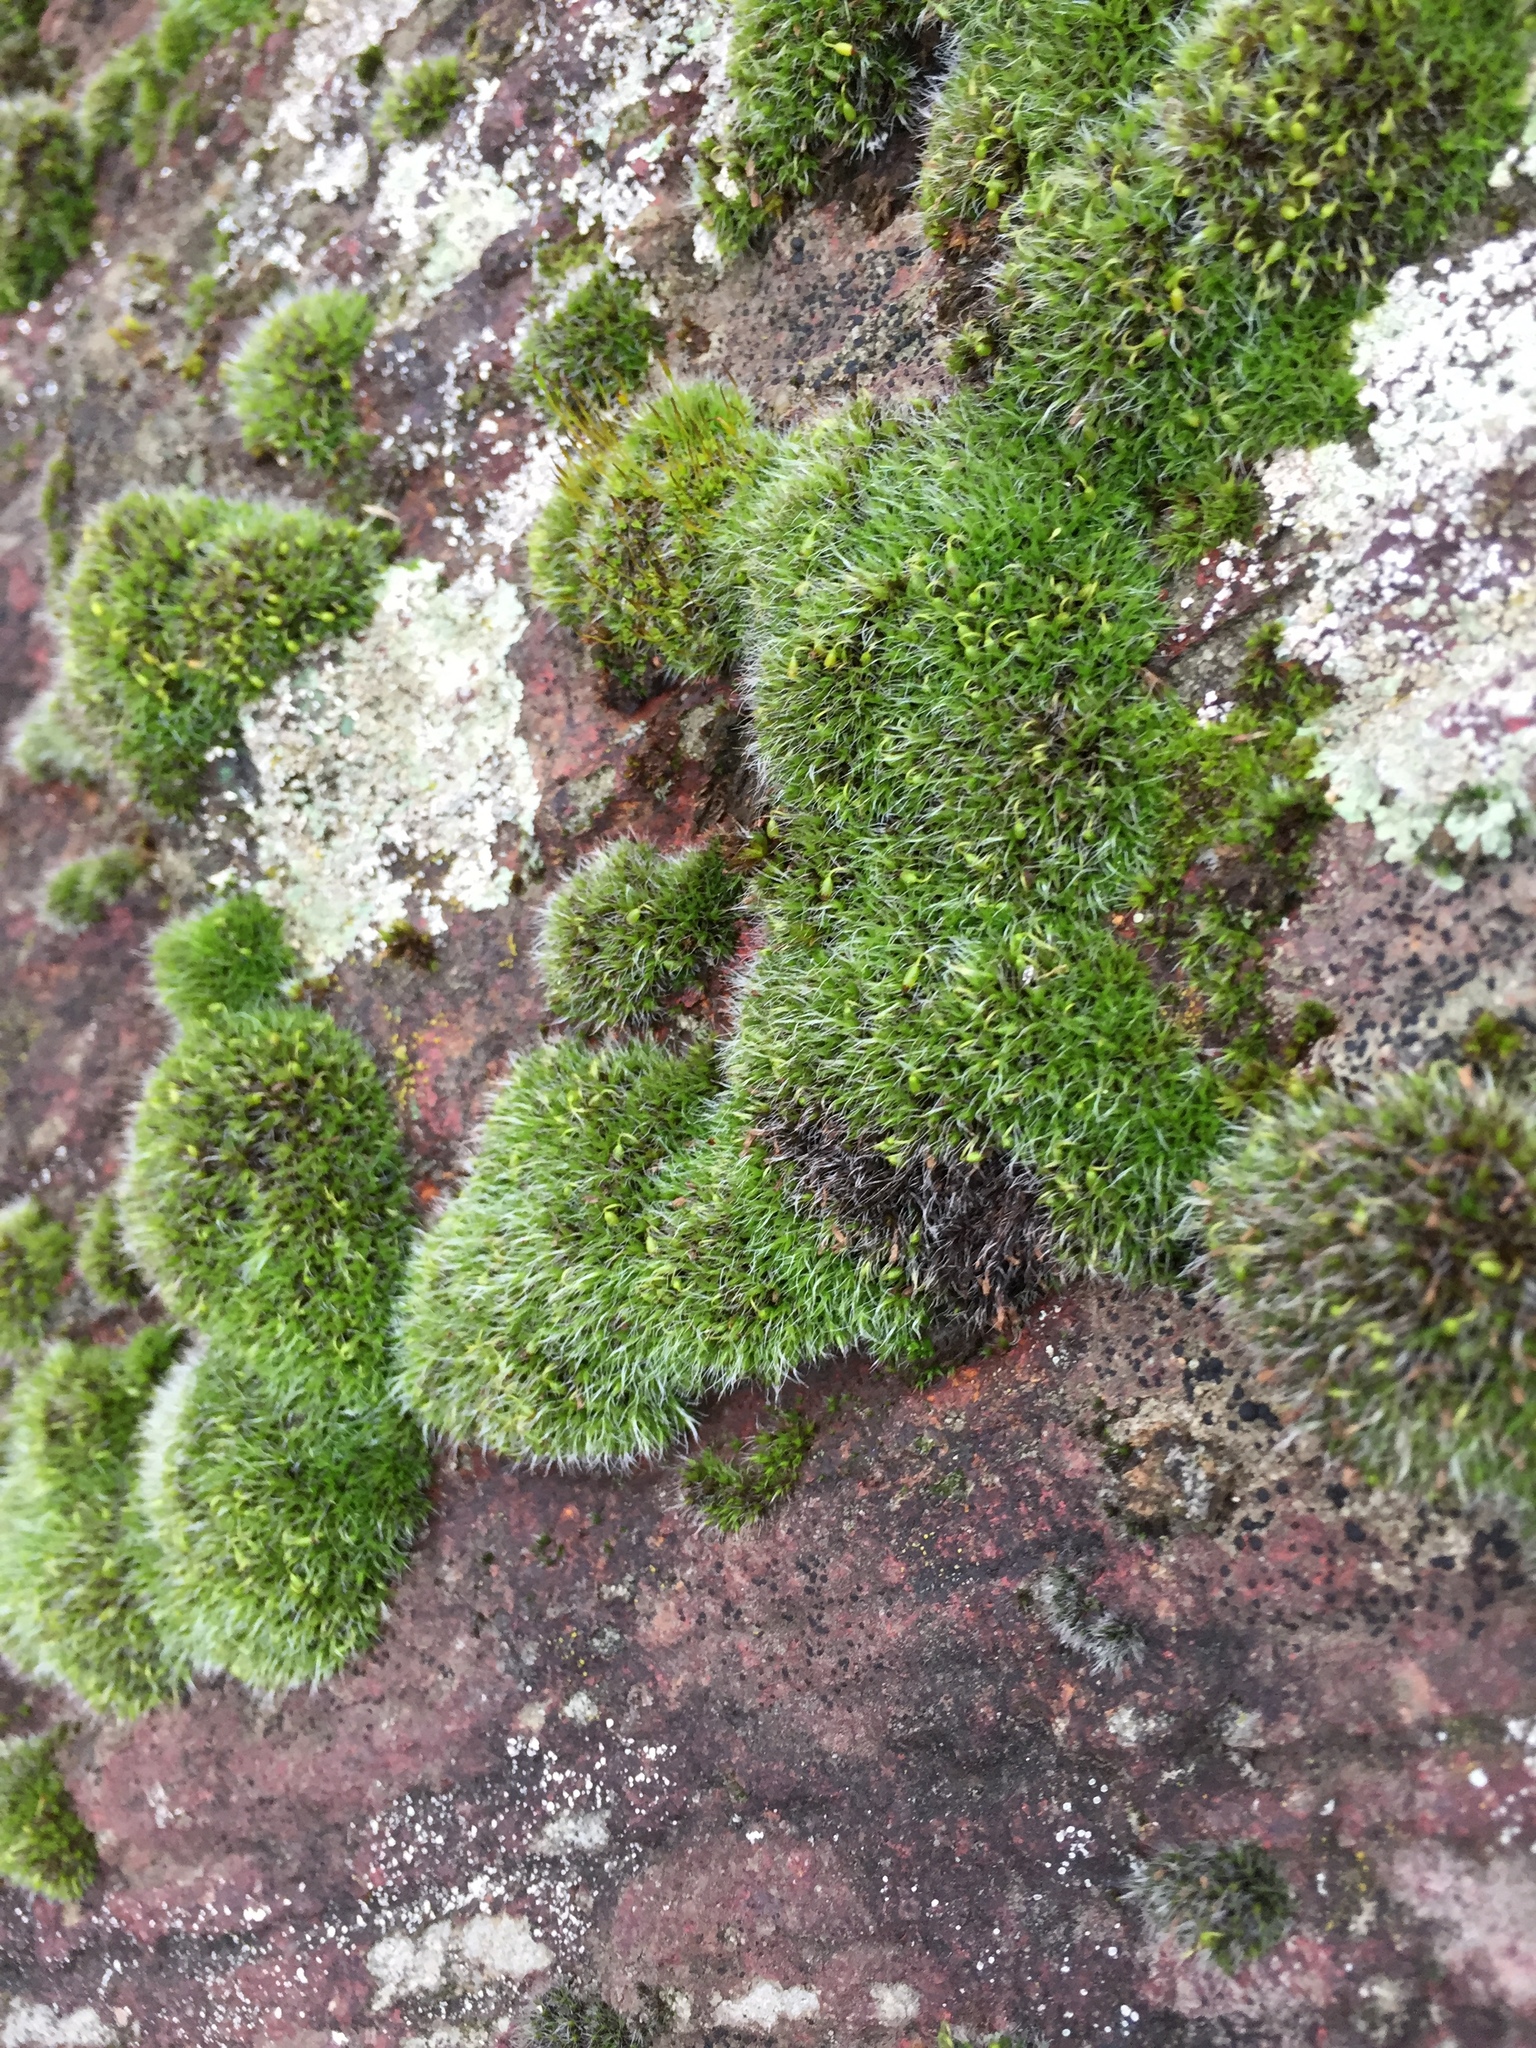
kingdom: Plantae
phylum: Bryophyta
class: Bryopsida
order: Grimmiales
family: Grimmiaceae
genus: Grimmia
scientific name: Grimmia pulvinata
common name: Grey-cushioned grimmia
